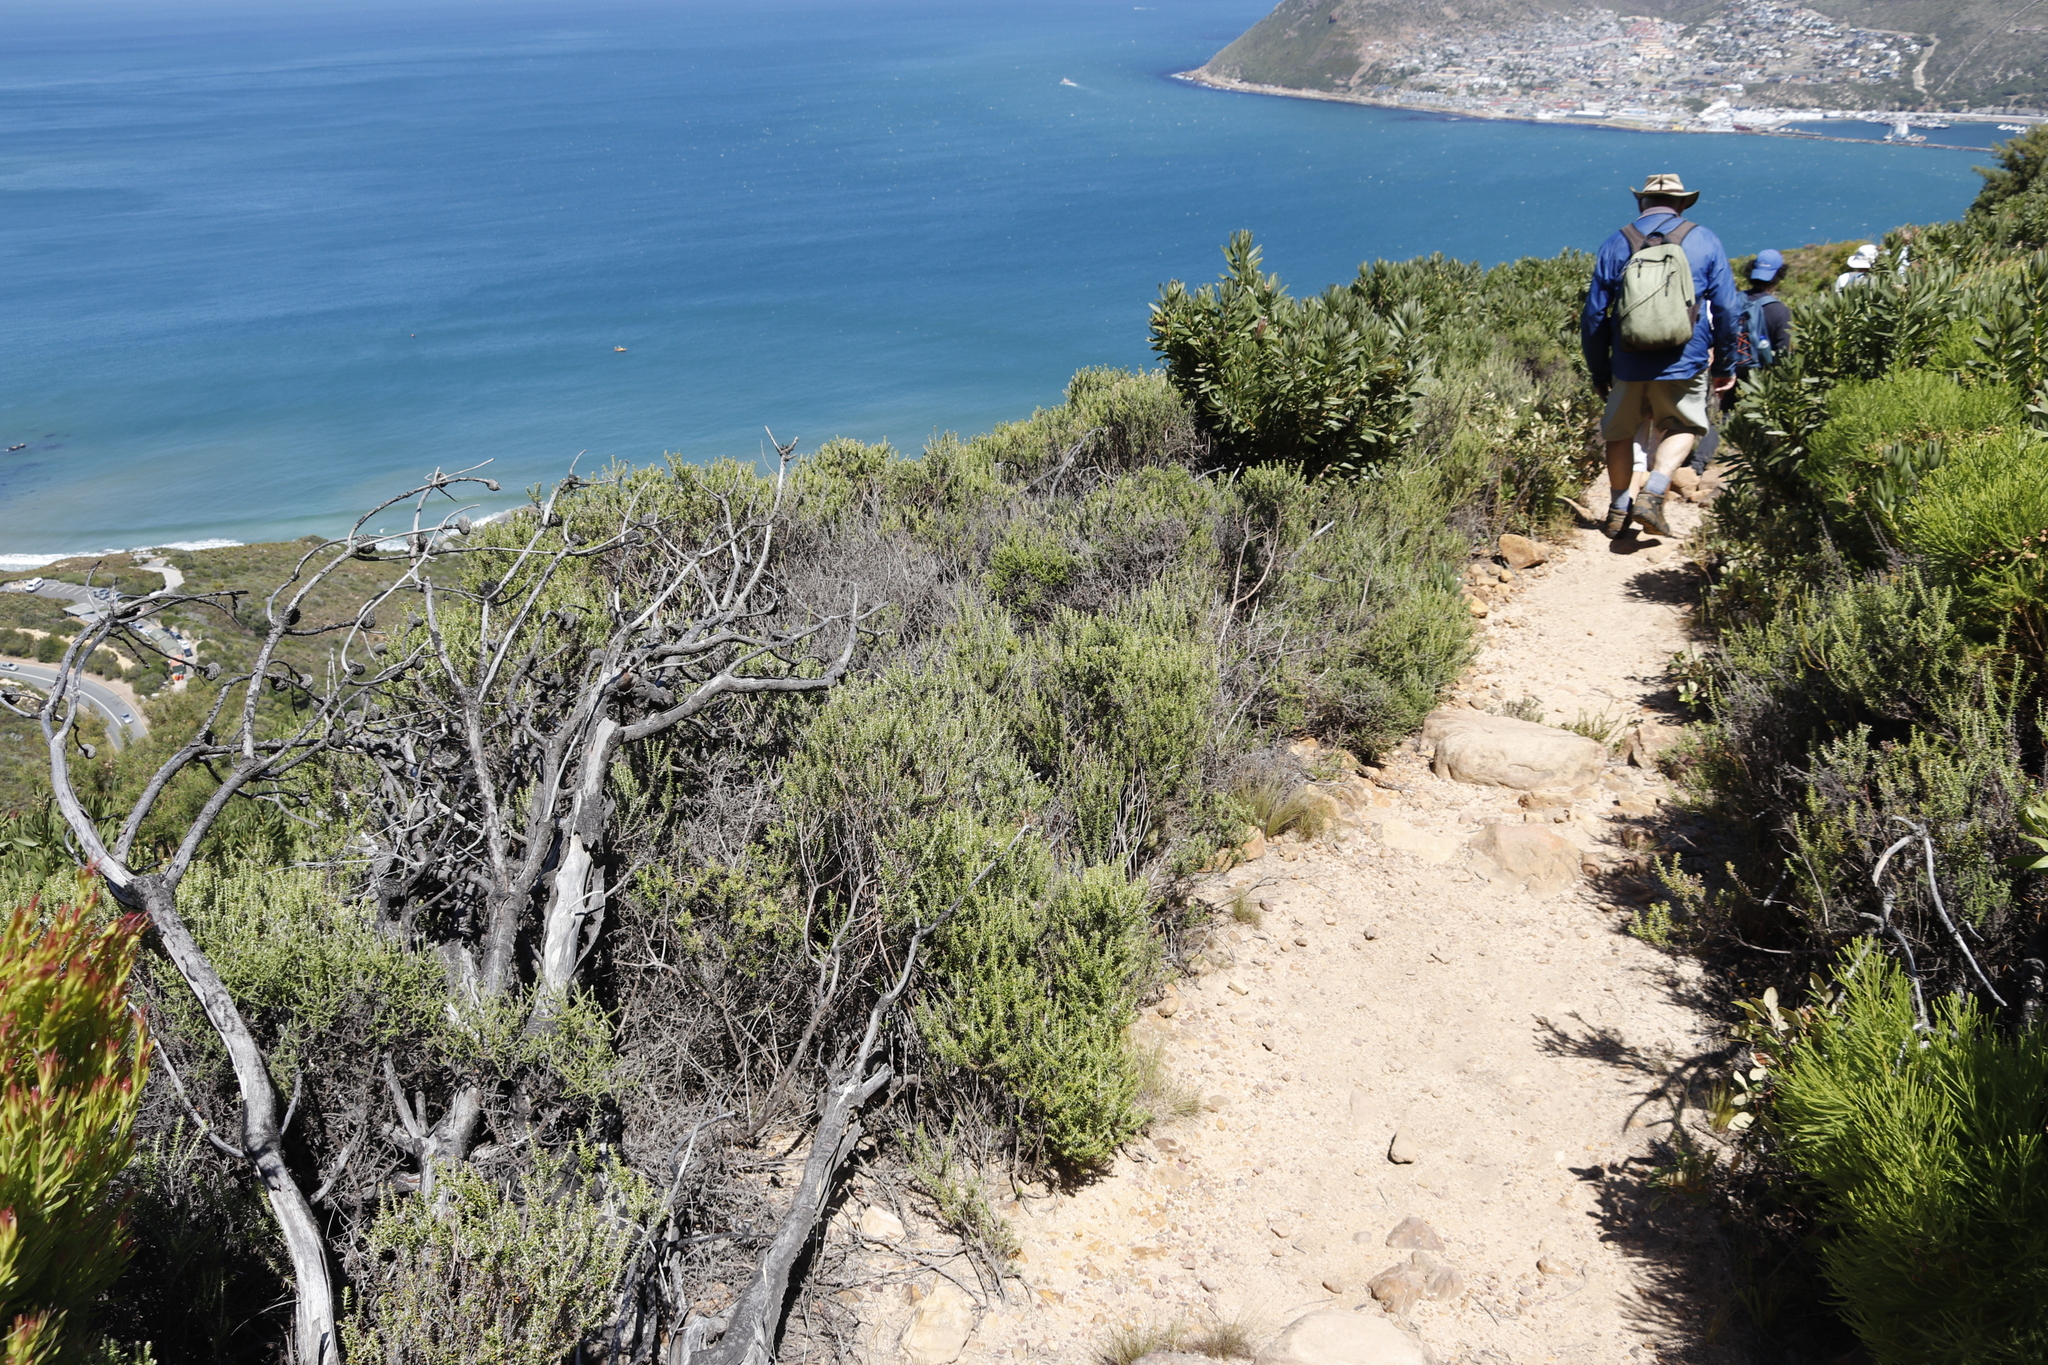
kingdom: Plantae
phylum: Tracheophyta
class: Magnoliopsida
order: Asterales
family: Asteraceae
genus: Metalasia
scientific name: Metalasia densa
